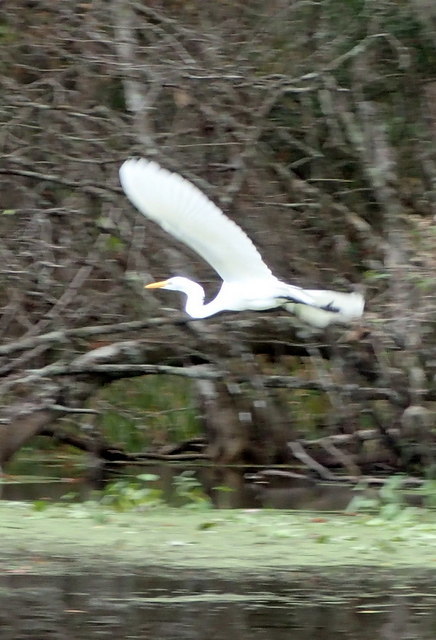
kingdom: Animalia
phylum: Chordata
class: Aves
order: Pelecaniformes
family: Ardeidae
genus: Ardea
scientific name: Ardea alba
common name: Great egret
